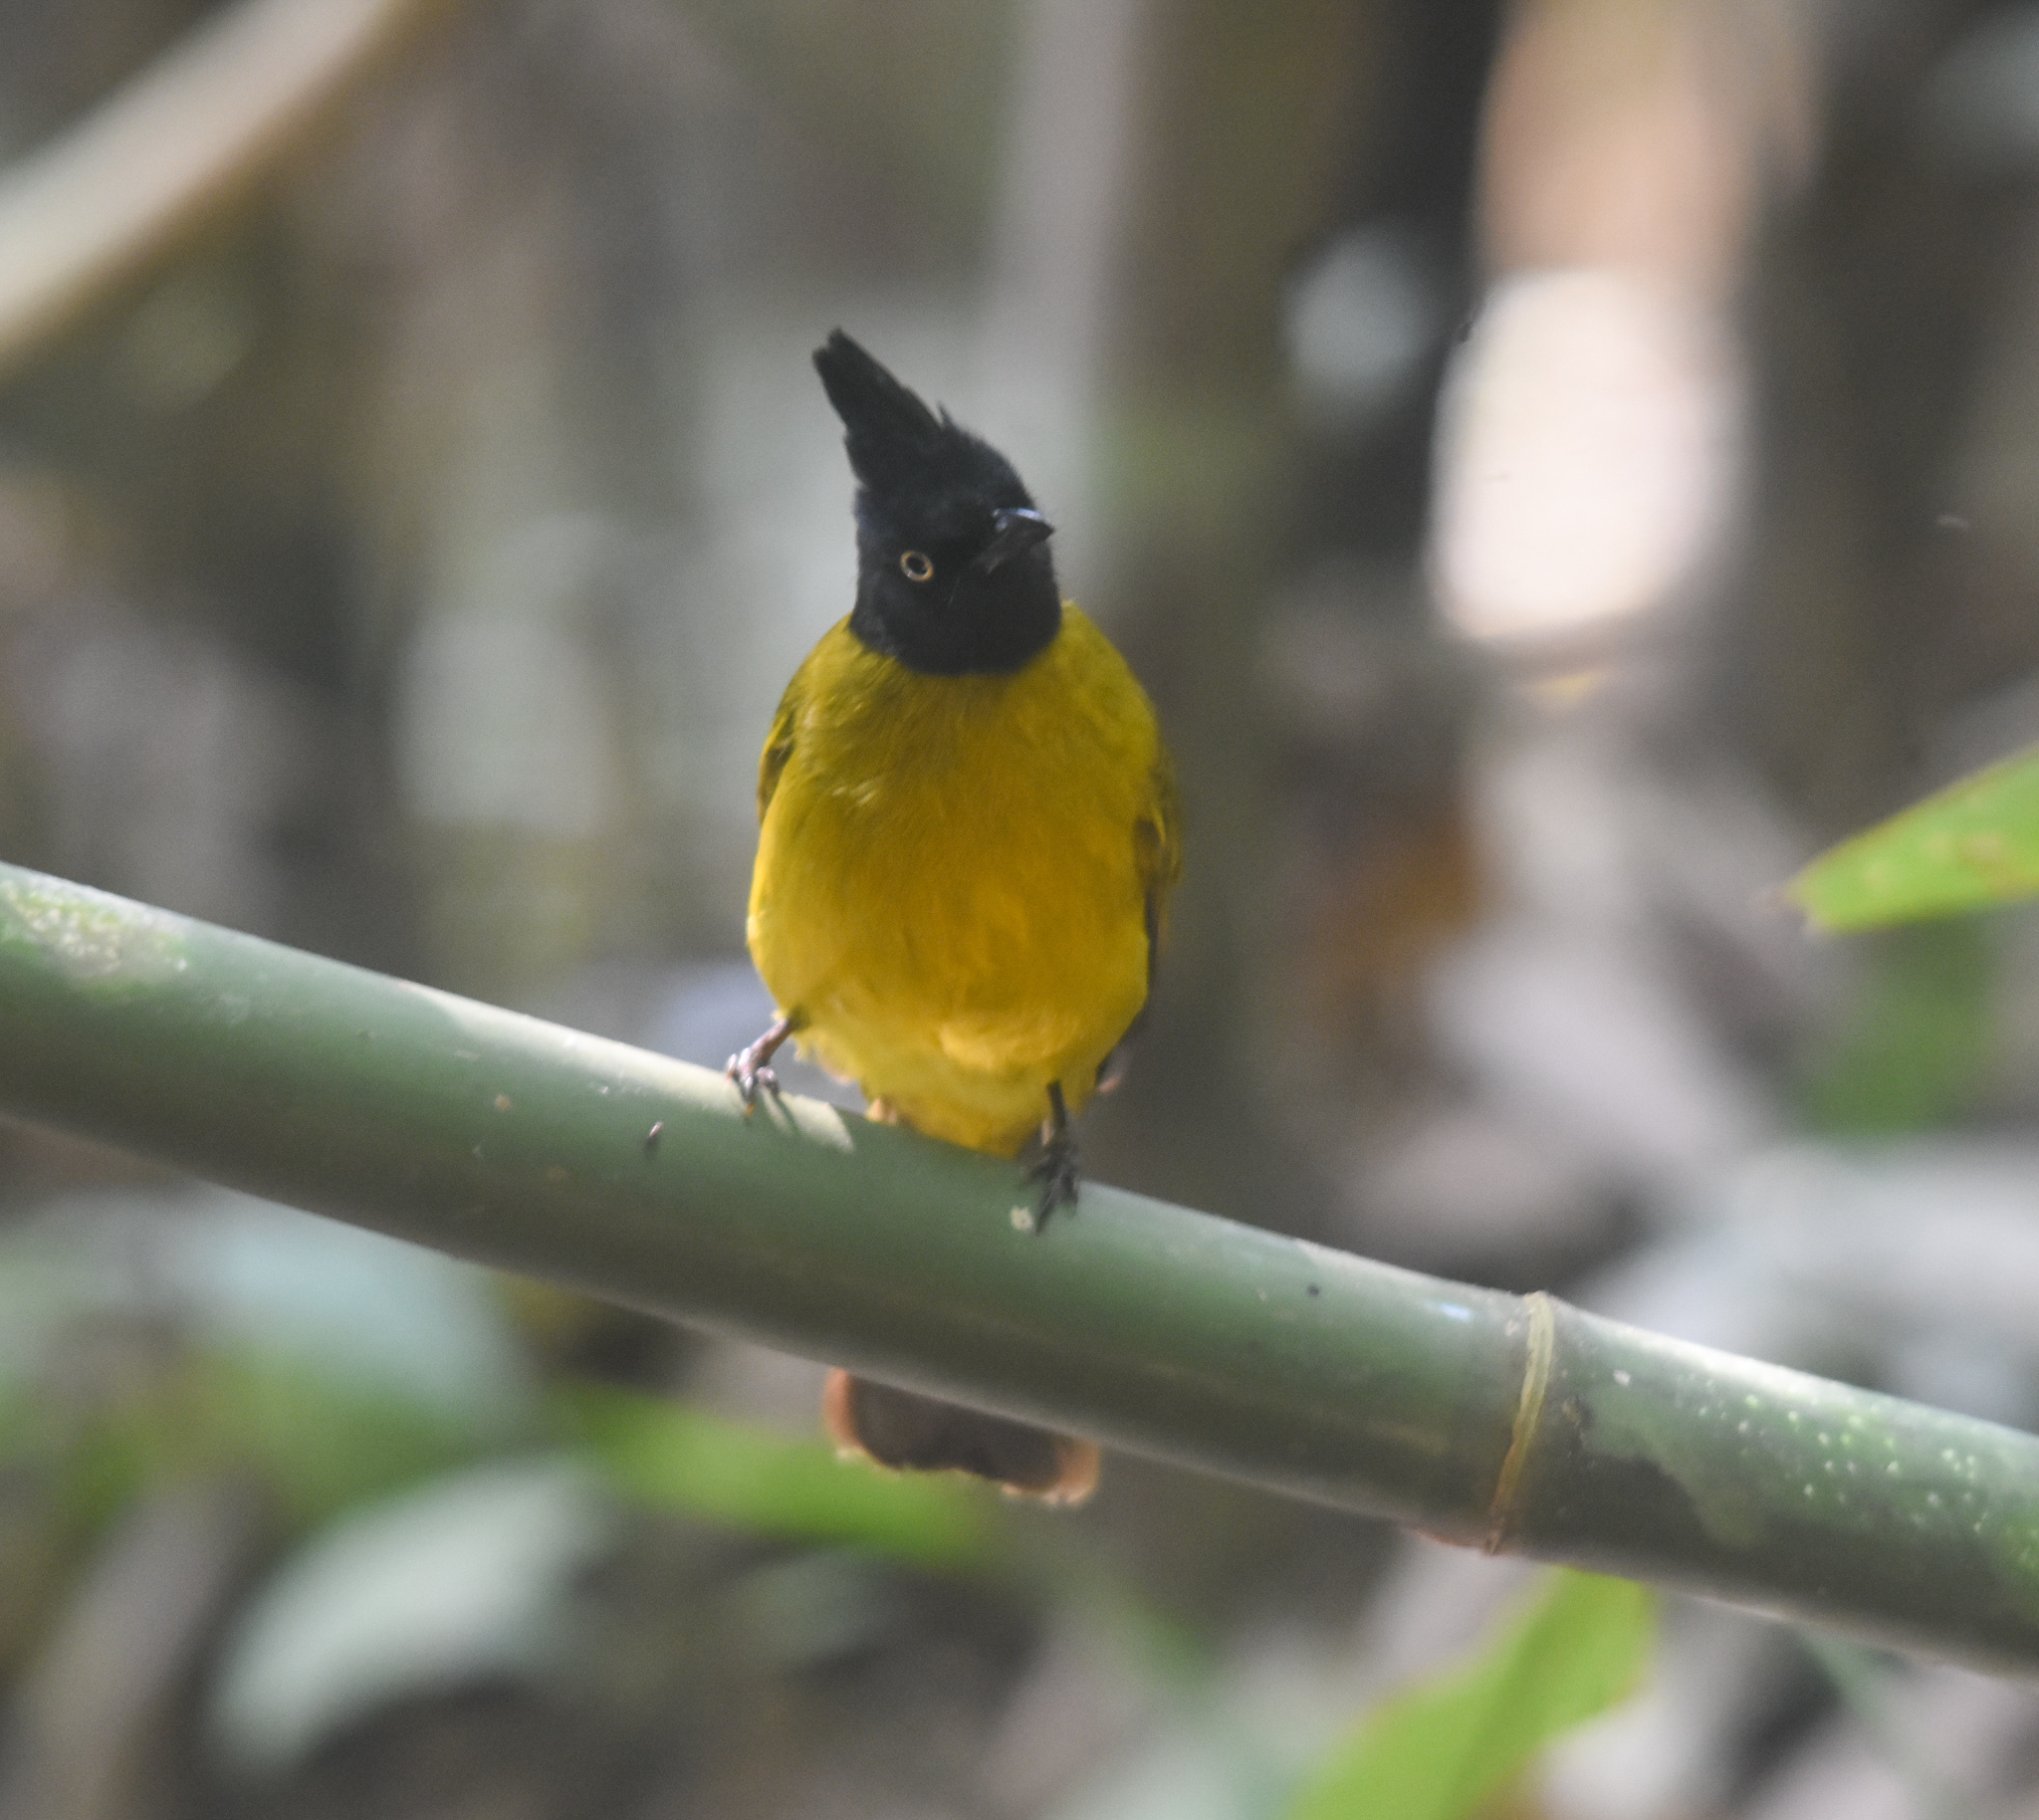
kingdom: Animalia
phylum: Chordata
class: Aves
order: Passeriformes
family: Pycnonotidae
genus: Pycnonotus
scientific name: Pycnonotus flaviventris
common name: Black-crested bulbul
